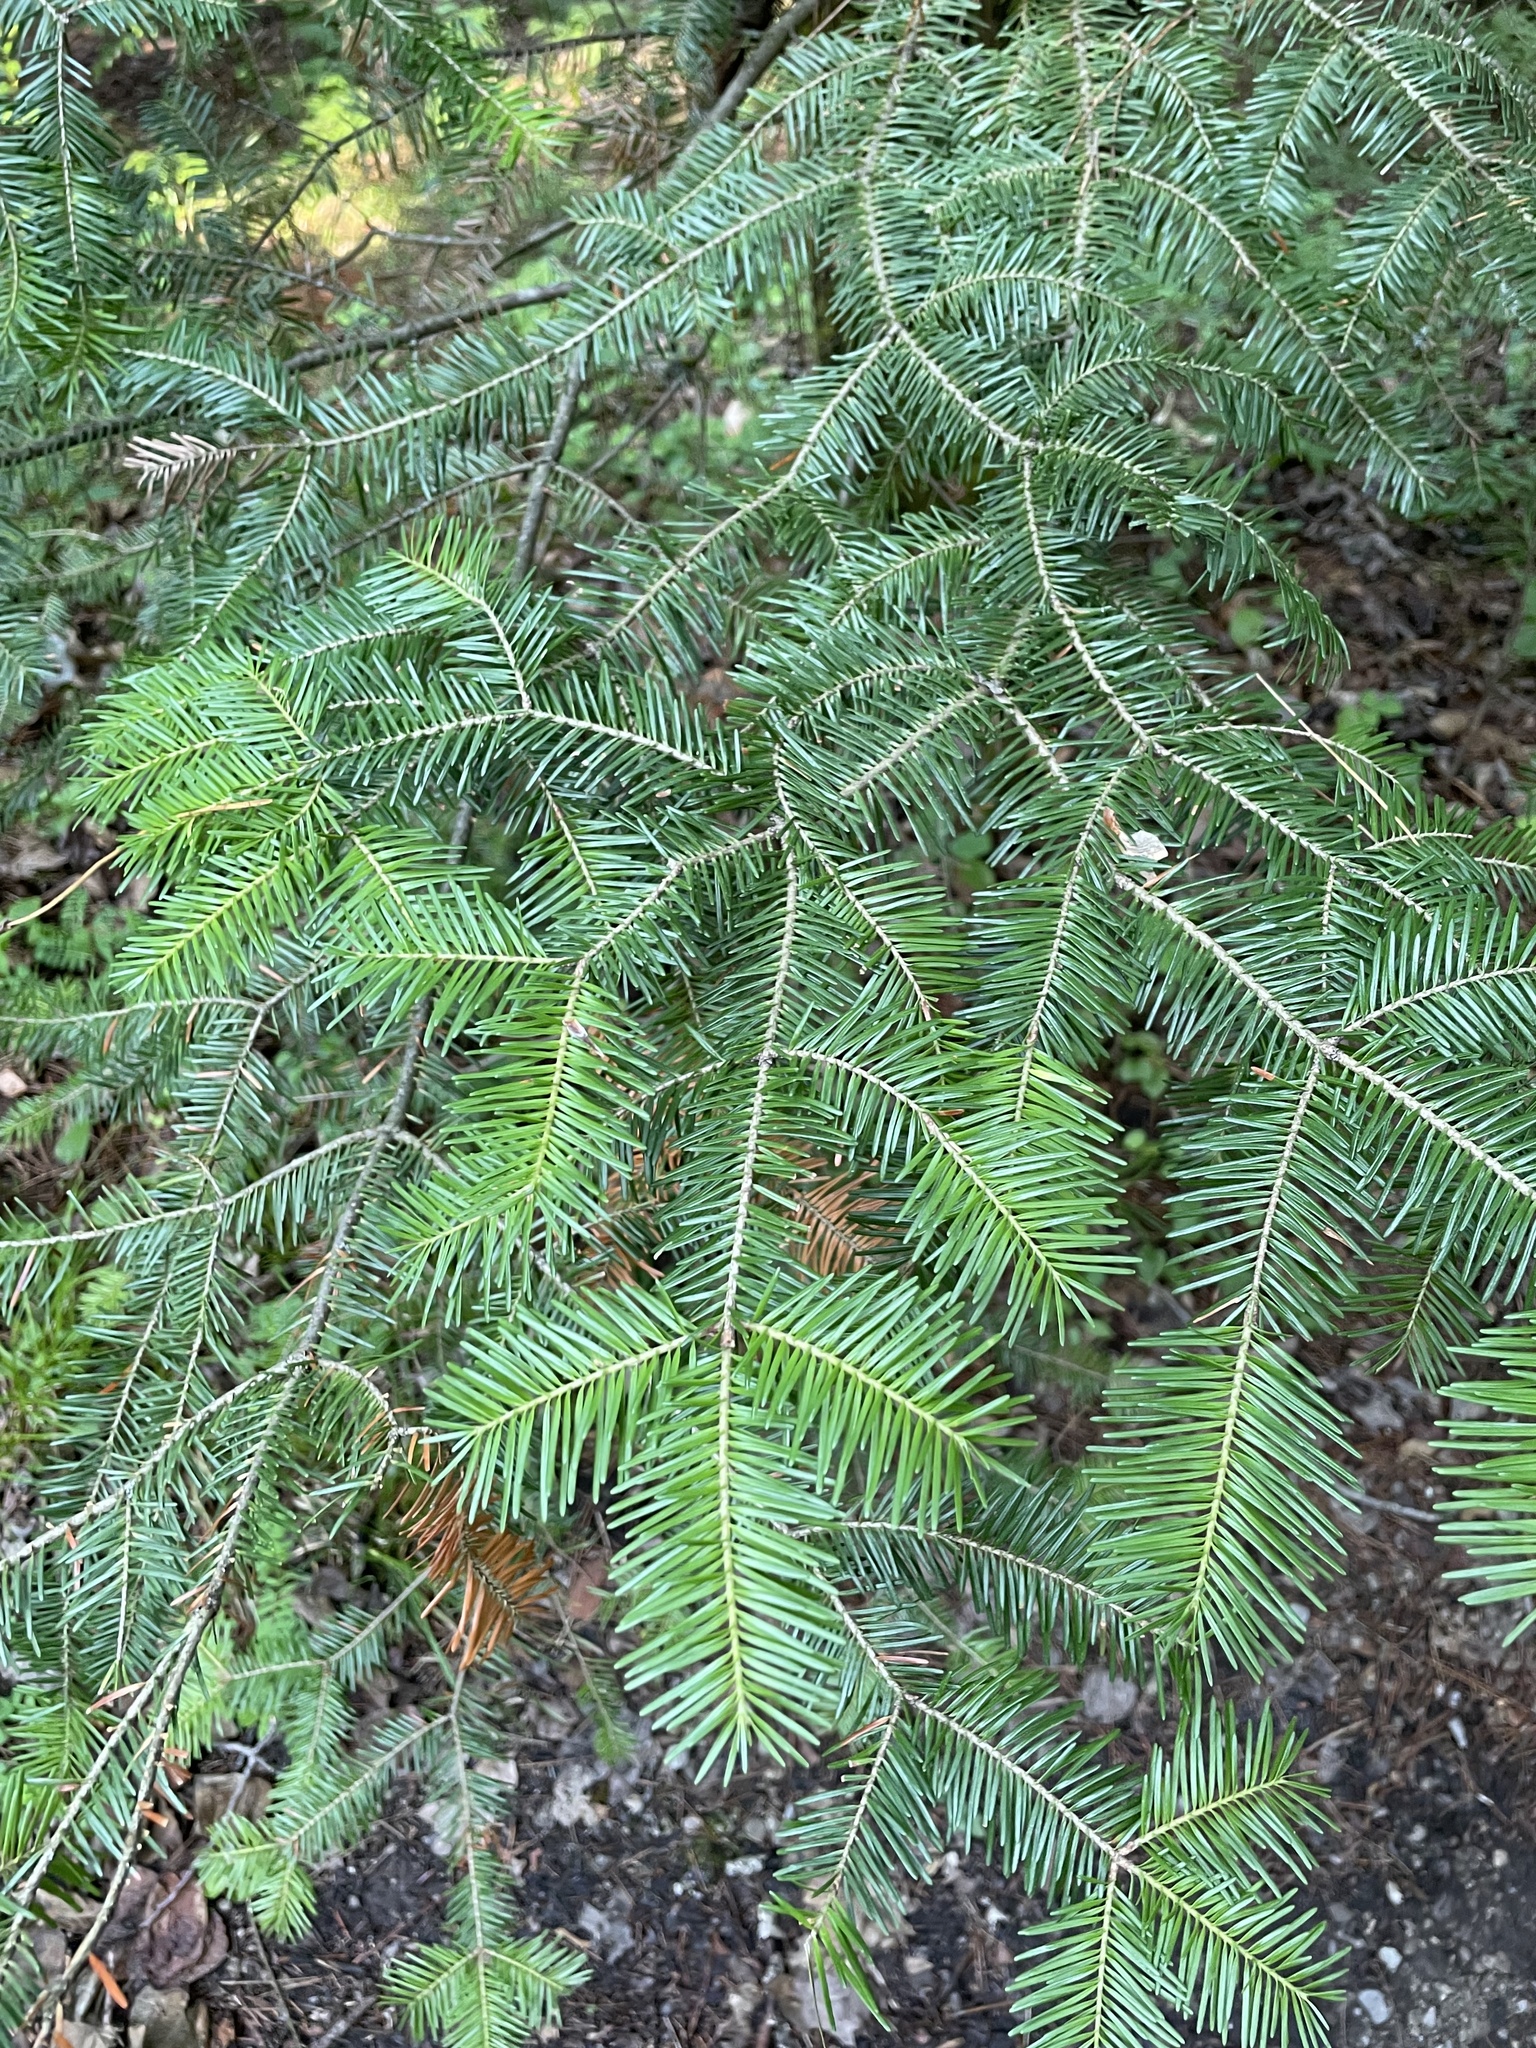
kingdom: Plantae
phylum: Tracheophyta
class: Pinopsida
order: Pinales
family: Pinaceae
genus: Abies
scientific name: Abies balsamea
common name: Balsam fir
